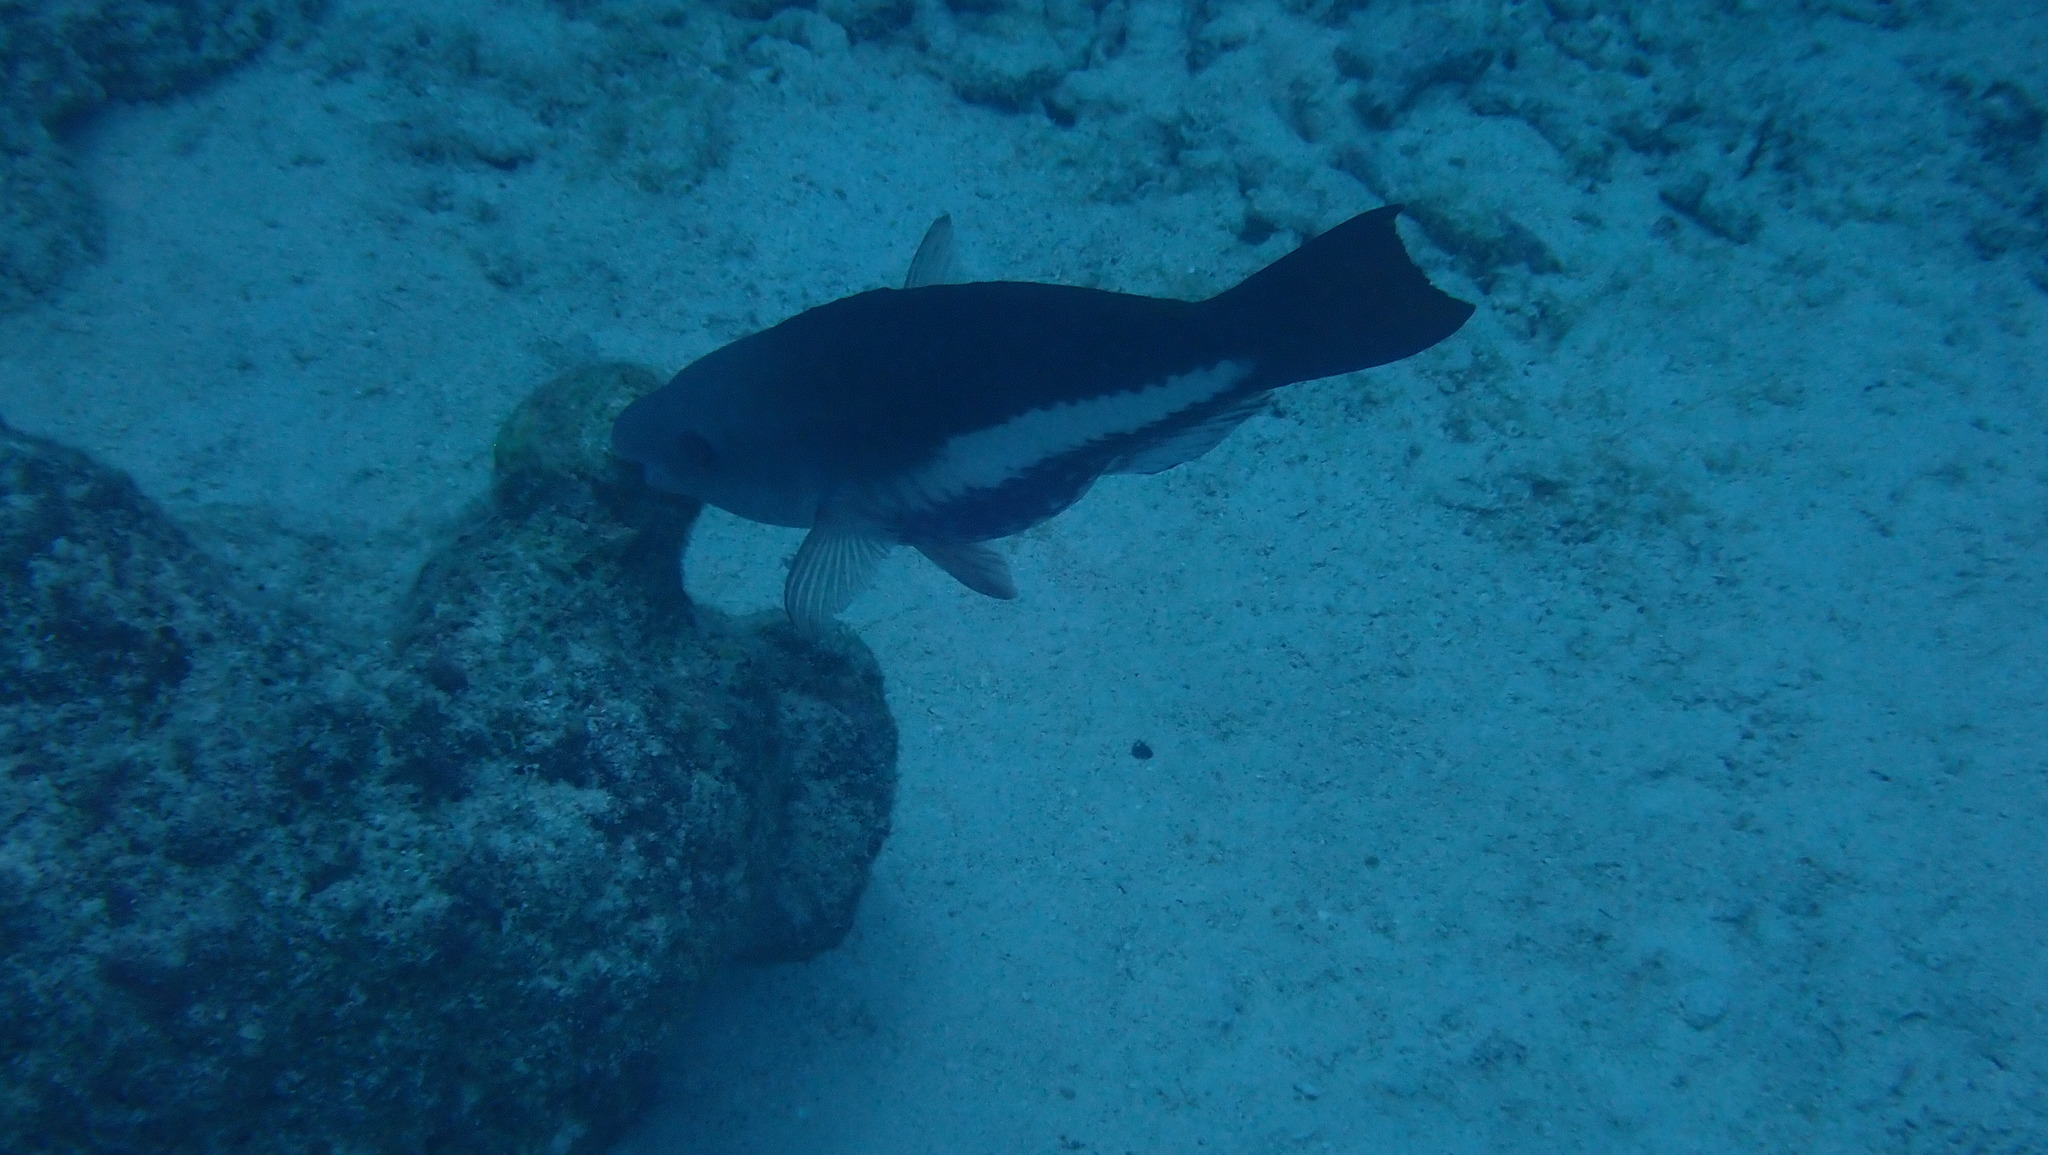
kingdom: Animalia
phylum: Chordata
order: Perciformes
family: Scaridae
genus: Scarus
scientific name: Scarus vetula
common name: Queen parrotfish
